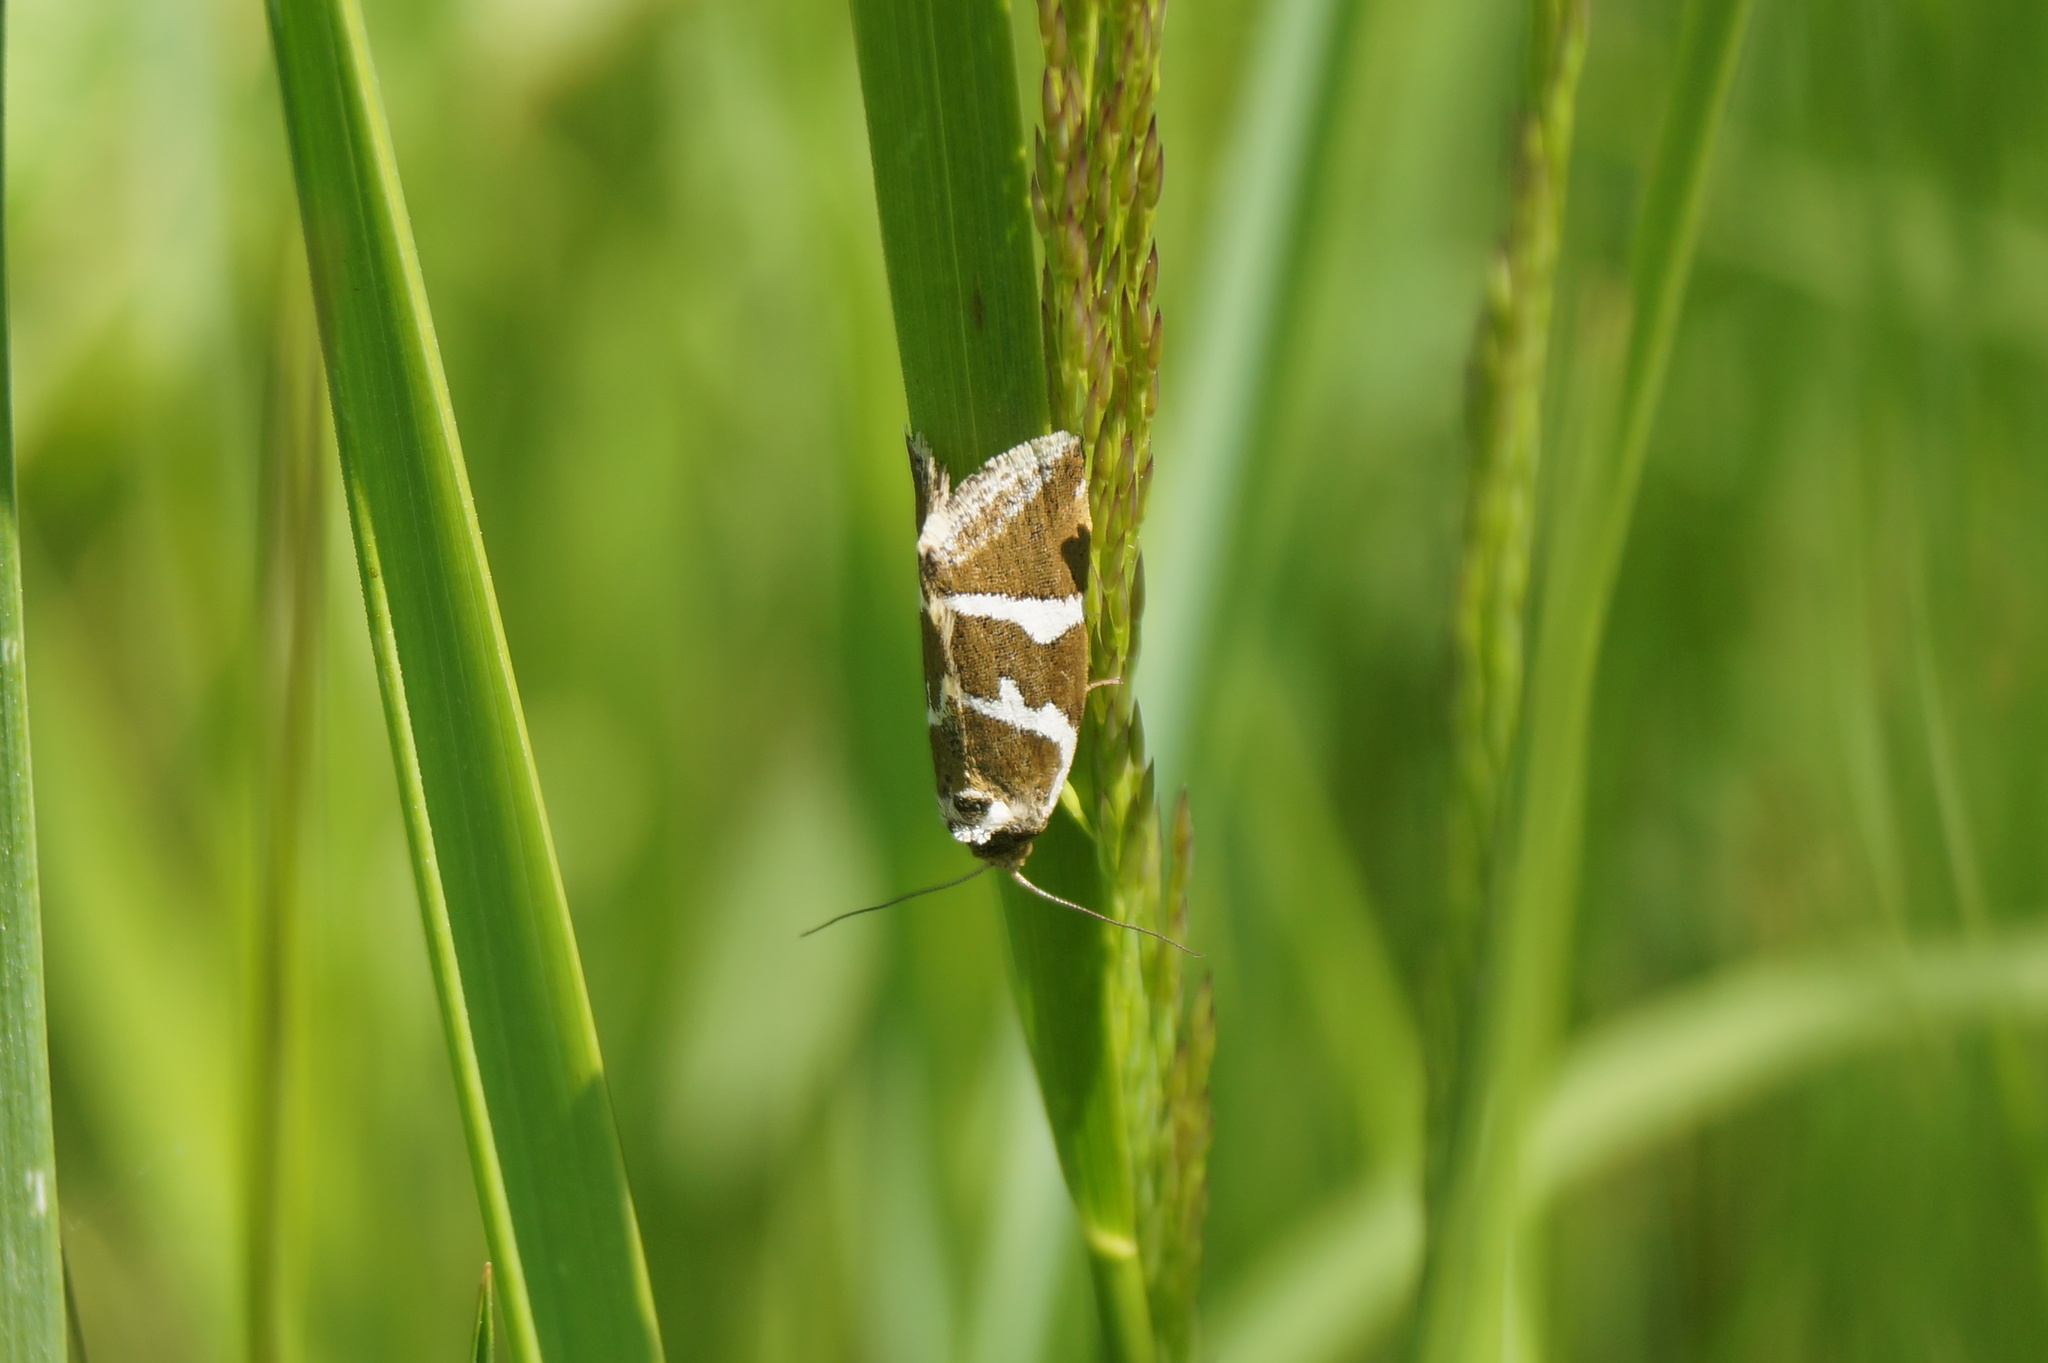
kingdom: Animalia
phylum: Arthropoda
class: Insecta
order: Lepidoptera
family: Noctuidae
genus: Deltote
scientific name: Deltote bankiana
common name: Silver barred
